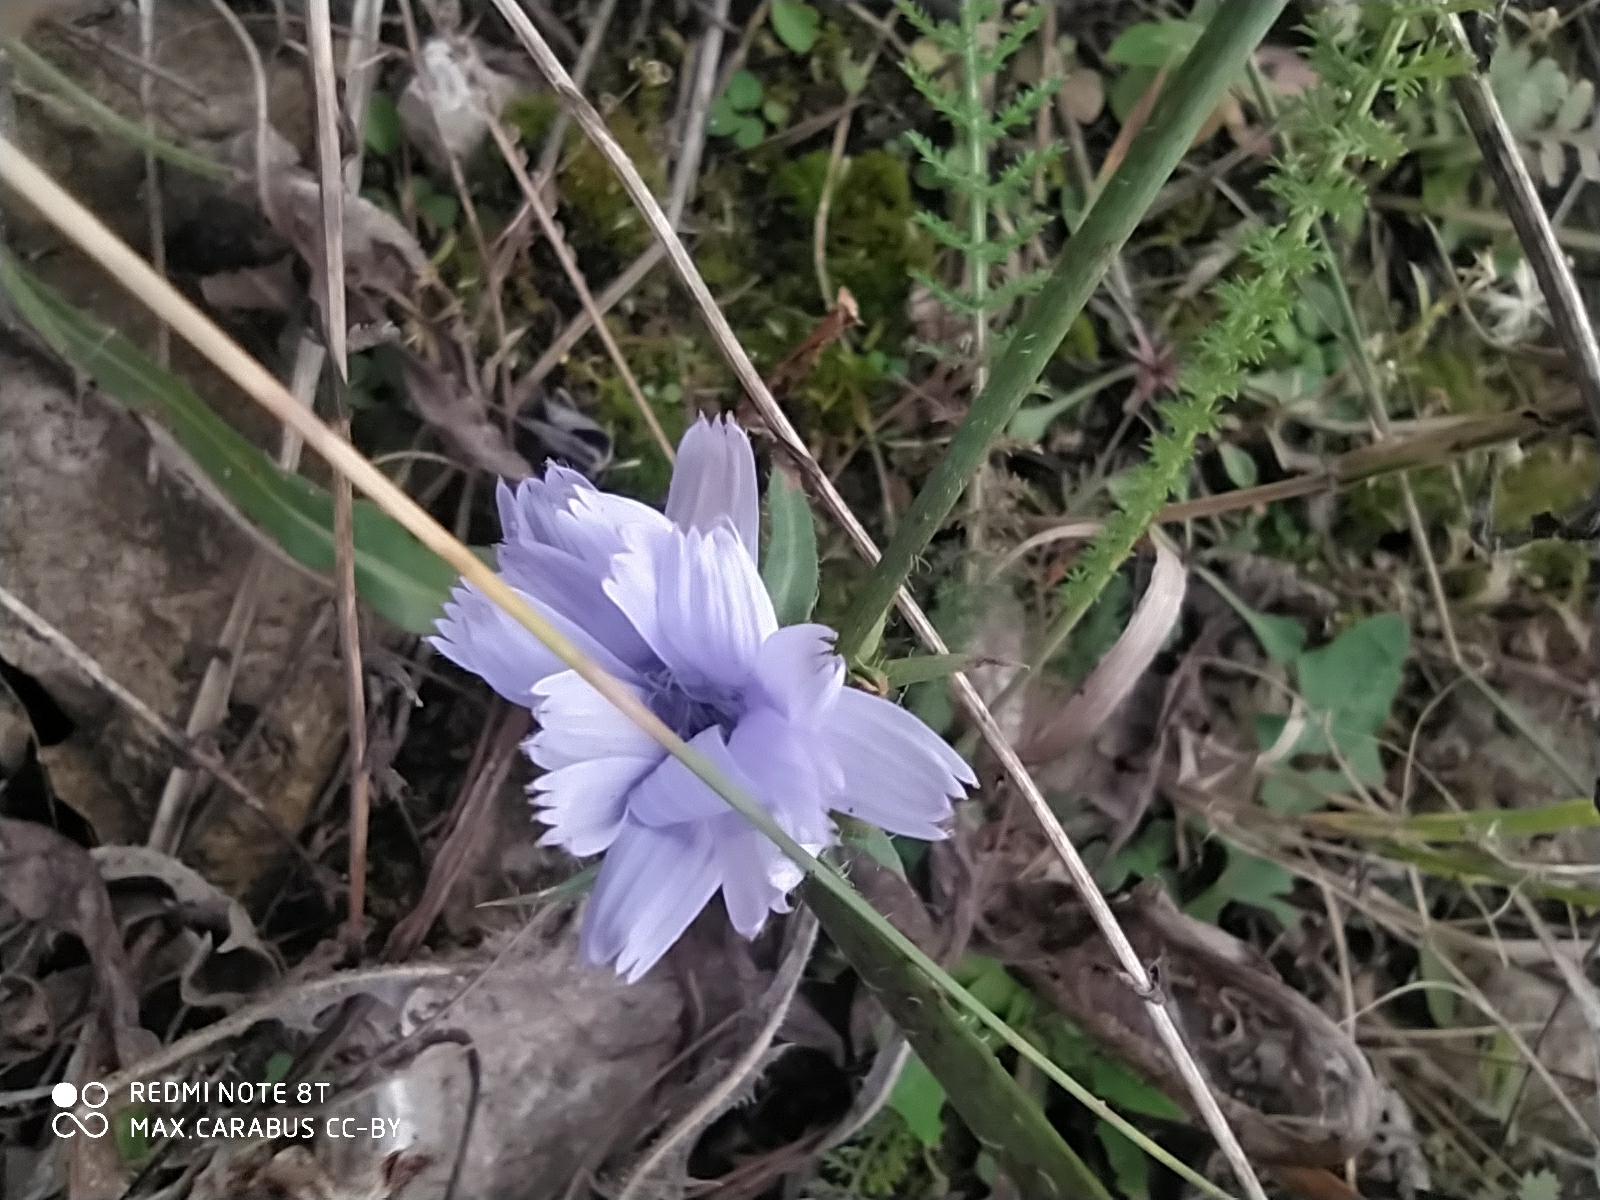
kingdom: Plantae
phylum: Tracheophyta
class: Magnoliopsida
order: Asterales
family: Asteraceae
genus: Cichorium
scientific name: Cichorium intybus
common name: Chicory
